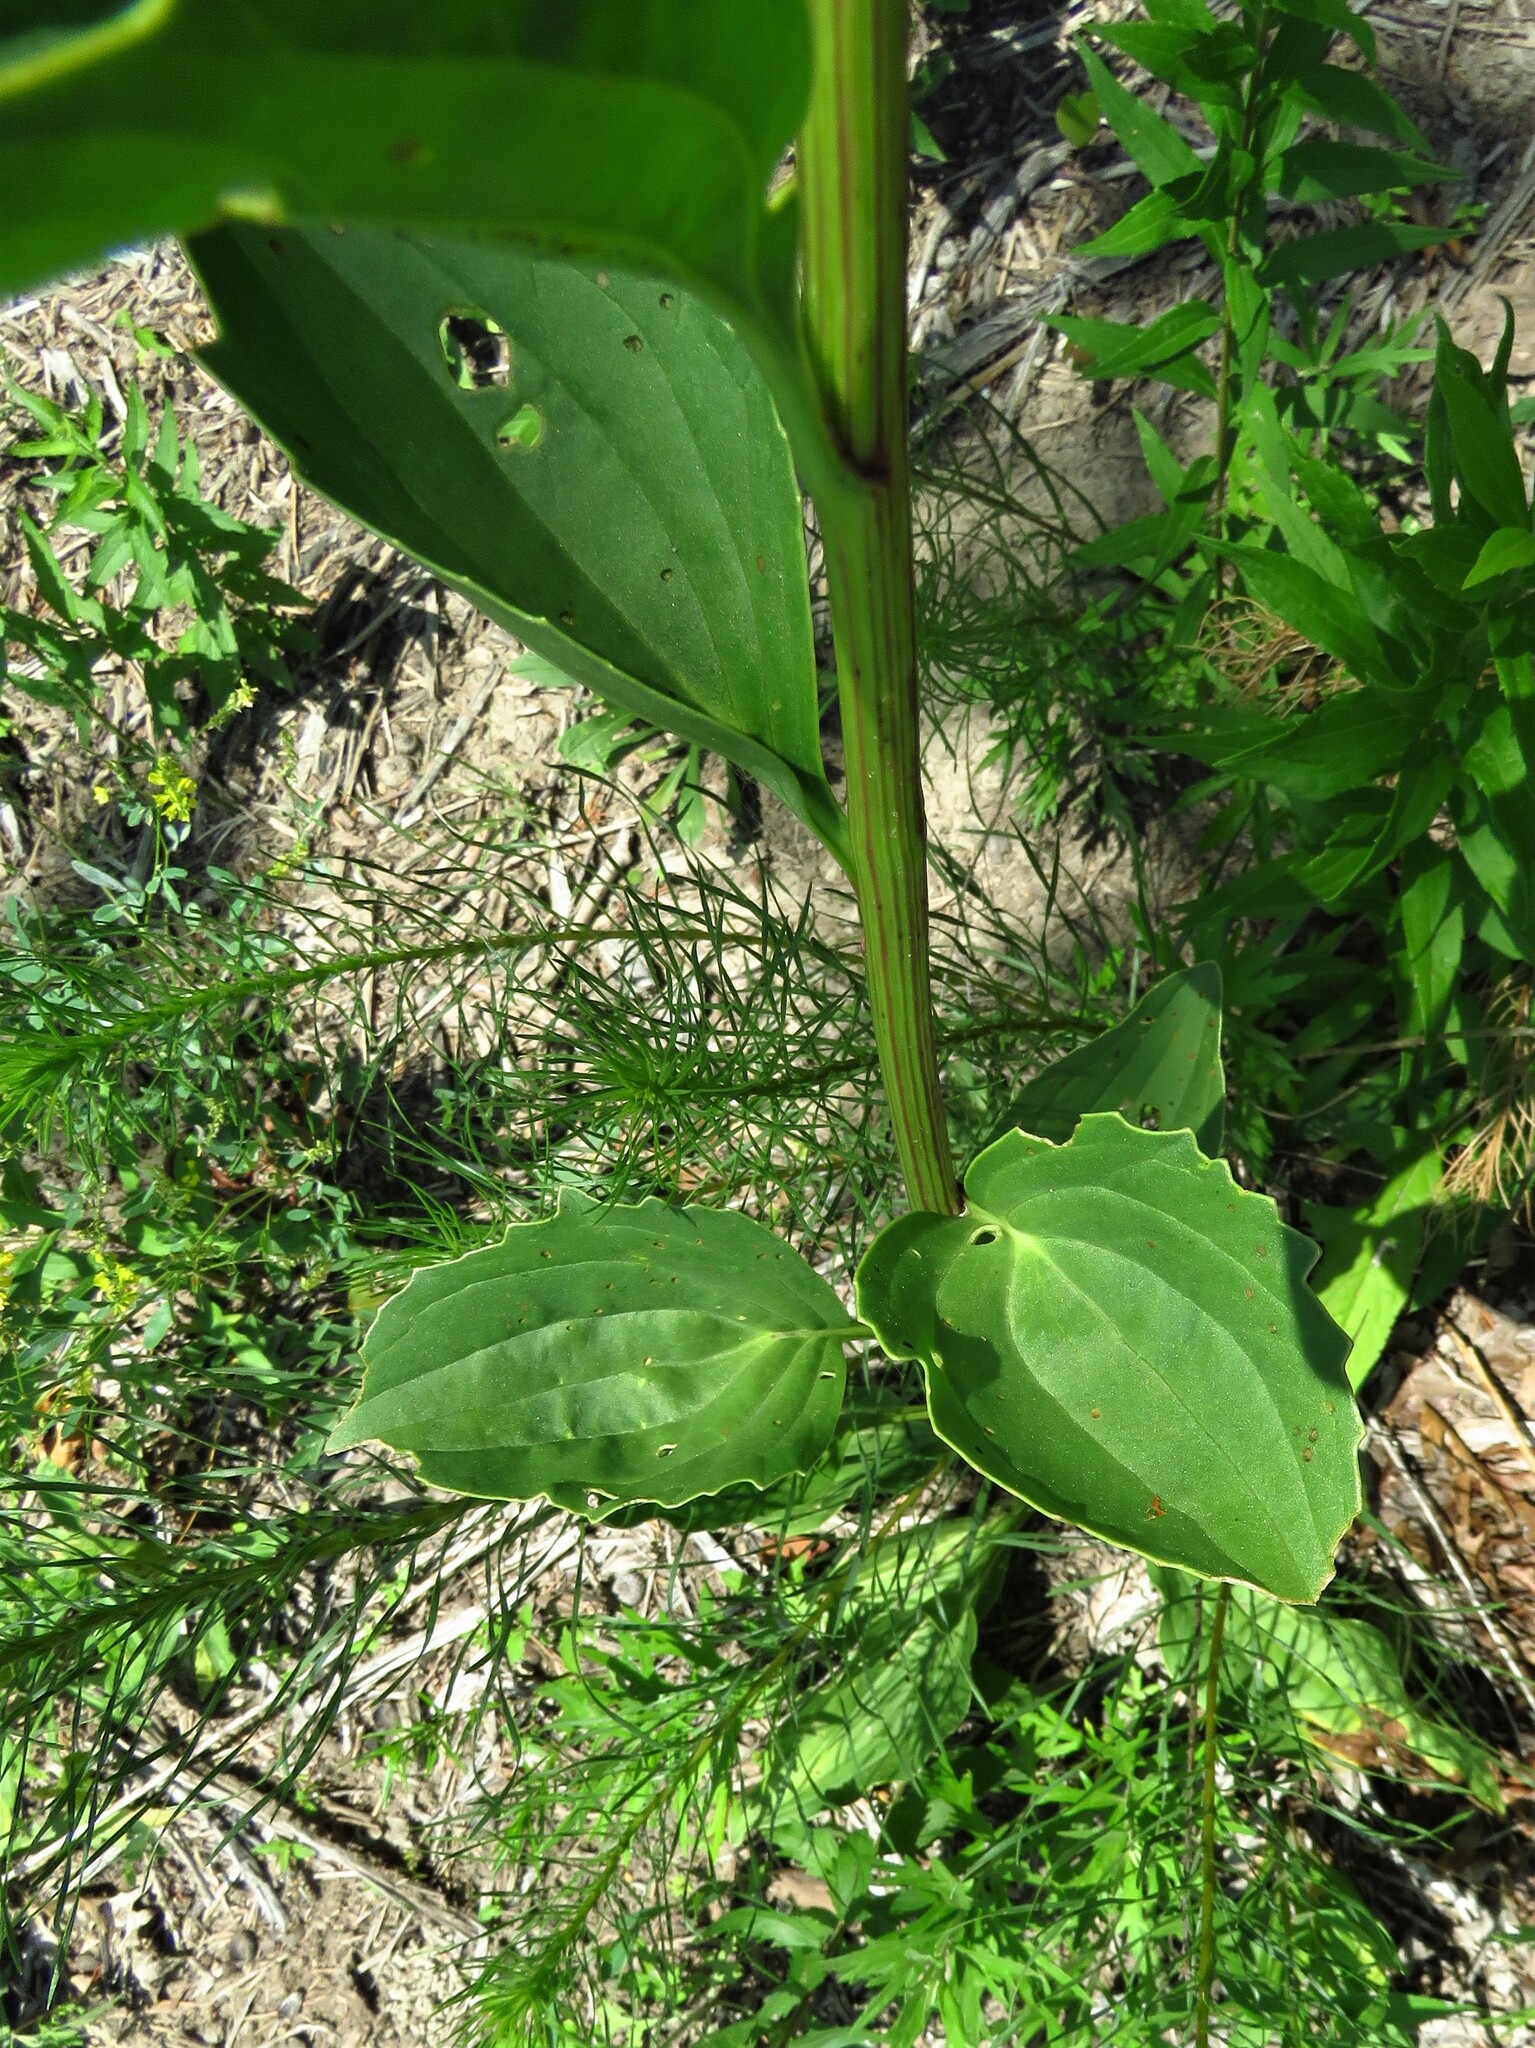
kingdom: Plantae
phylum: Tracheophyta
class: Magnoliopsida
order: Asterales
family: Asteraceae
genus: Arnoglossum
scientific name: Arnoglossum plantagineum
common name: Groove-stemmed indian-plantain
